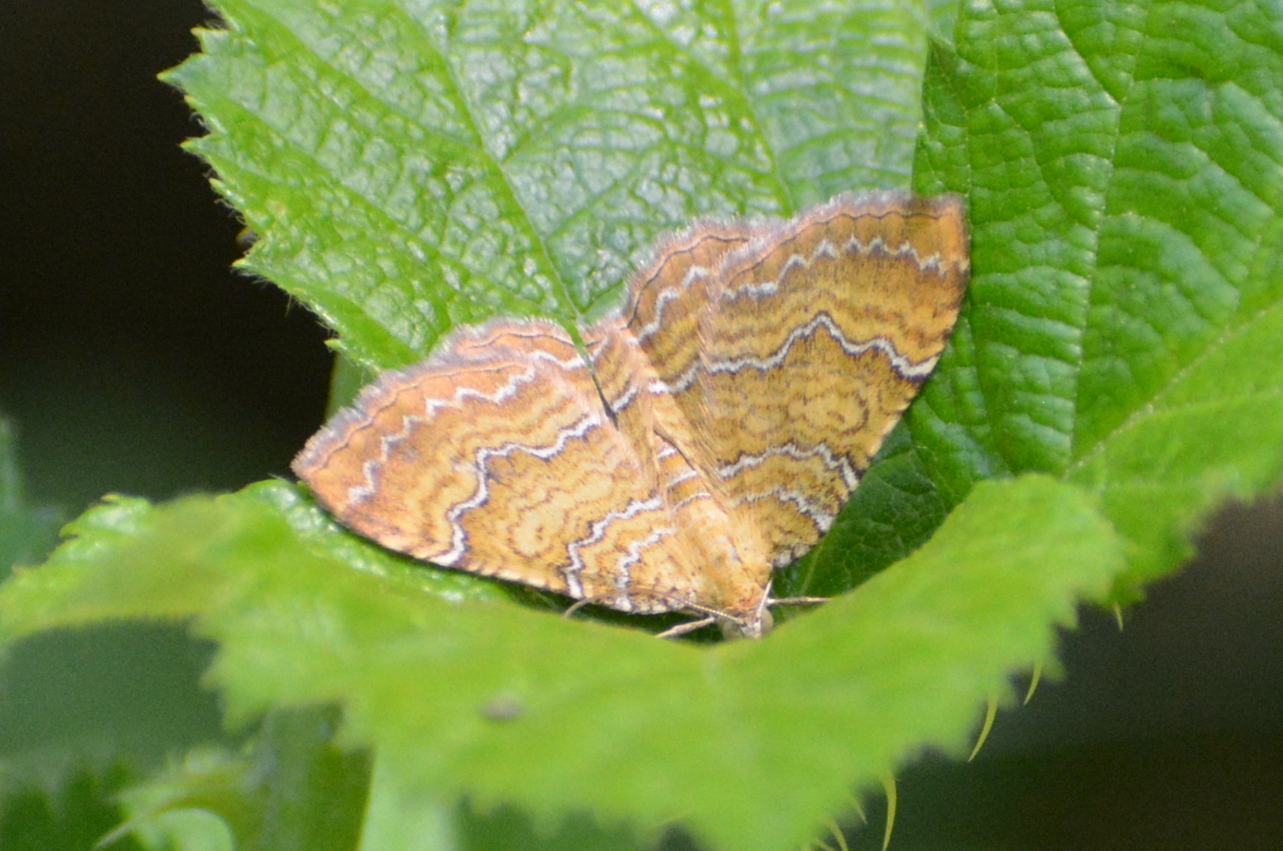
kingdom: Animalia
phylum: Arthropoda
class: Insecta
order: Lepidoptera
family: Geometridae
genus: Camptogramma
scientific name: Camptogramma bilineata
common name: Yellow shell
